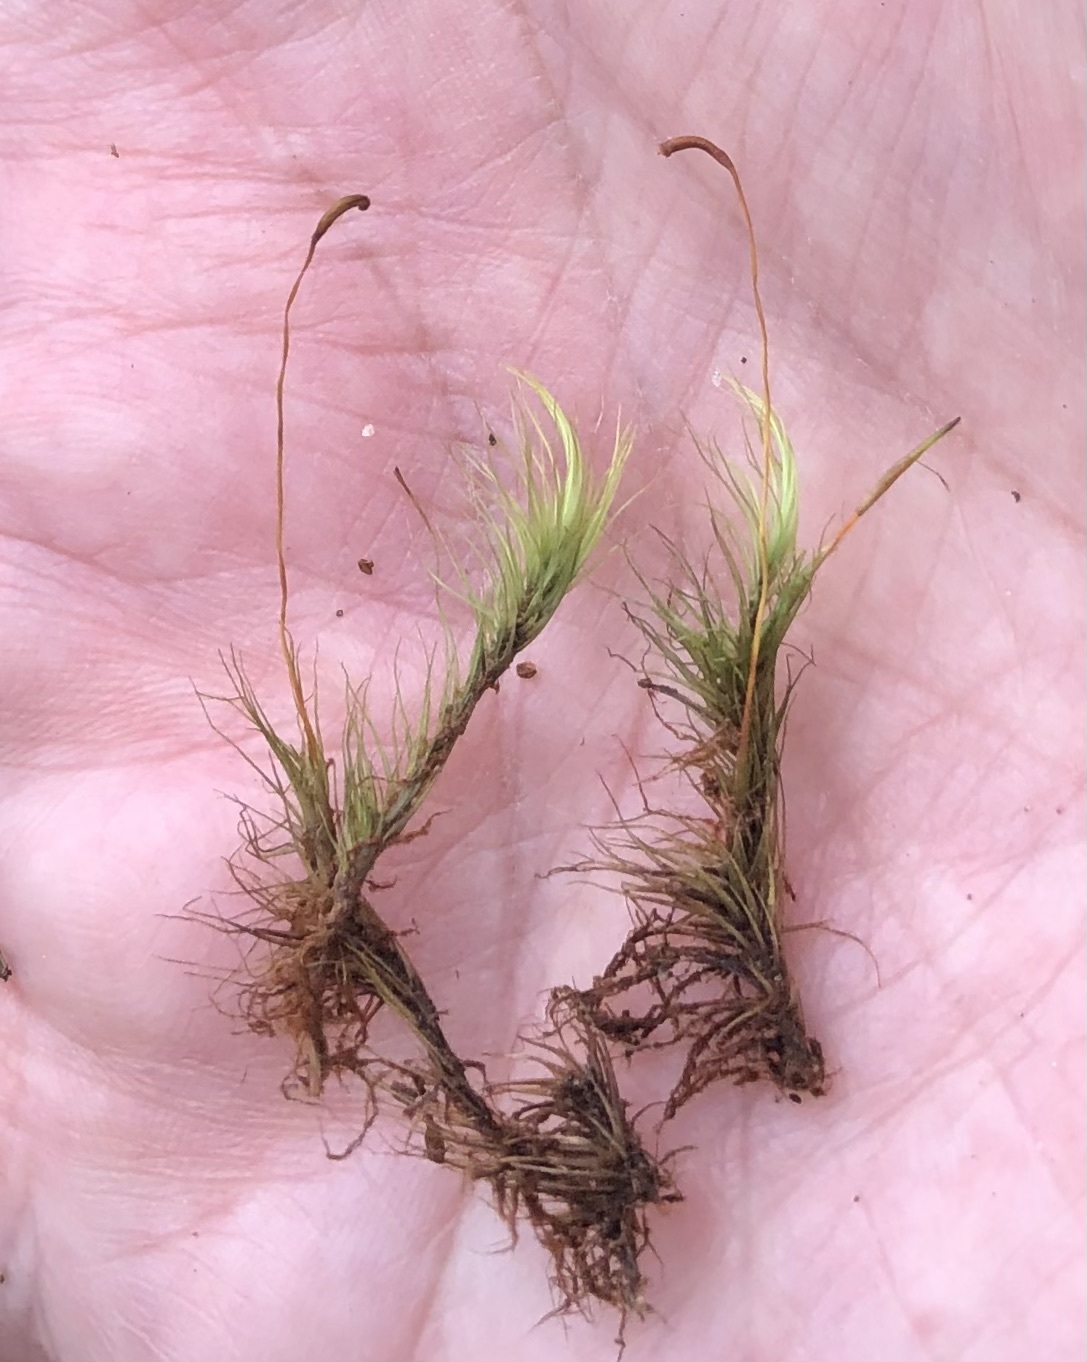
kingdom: Plantae
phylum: Bryophyta
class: Bryopsida
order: Dicranales
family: Dicranaceae
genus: Dicranum
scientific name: Dicranum fuscescens
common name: Curly heron's-bill moss
